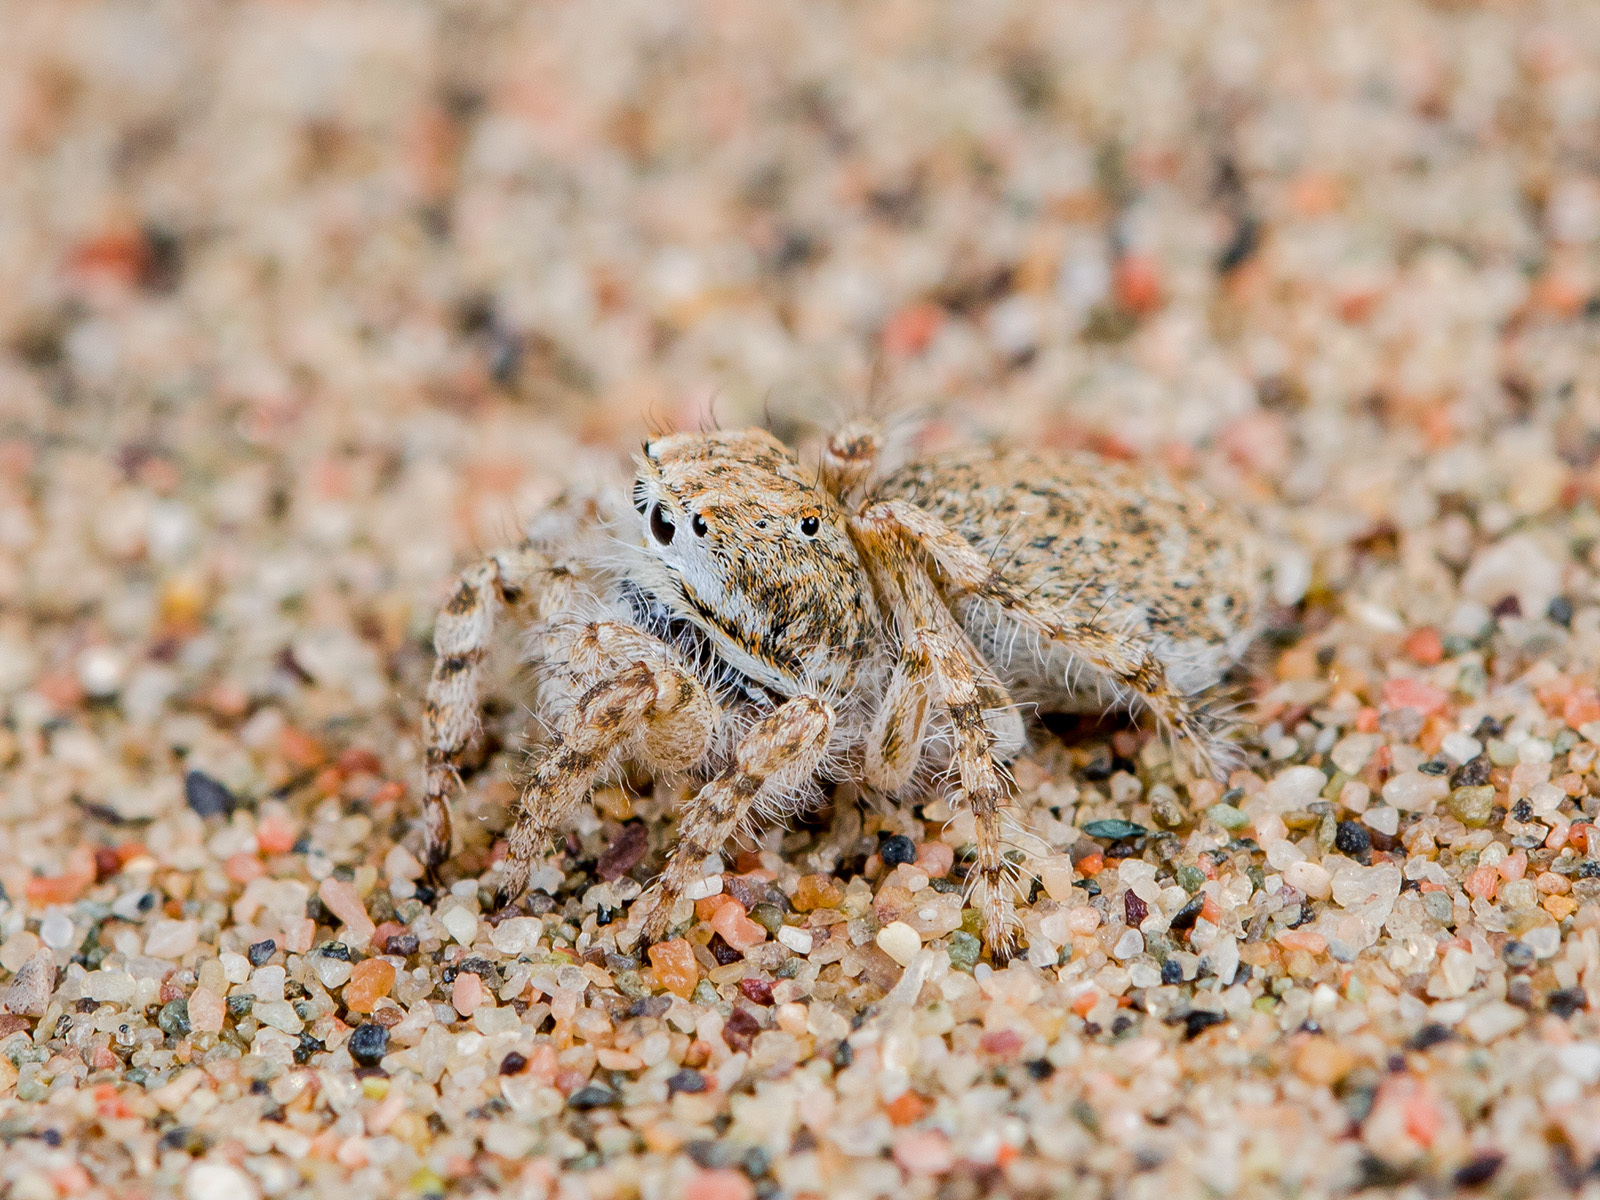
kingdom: Animalia
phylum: Arthropoda
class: Arachnida
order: Araneae
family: Salticidae
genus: Yllenus
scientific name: Yllenus turkestanicus
